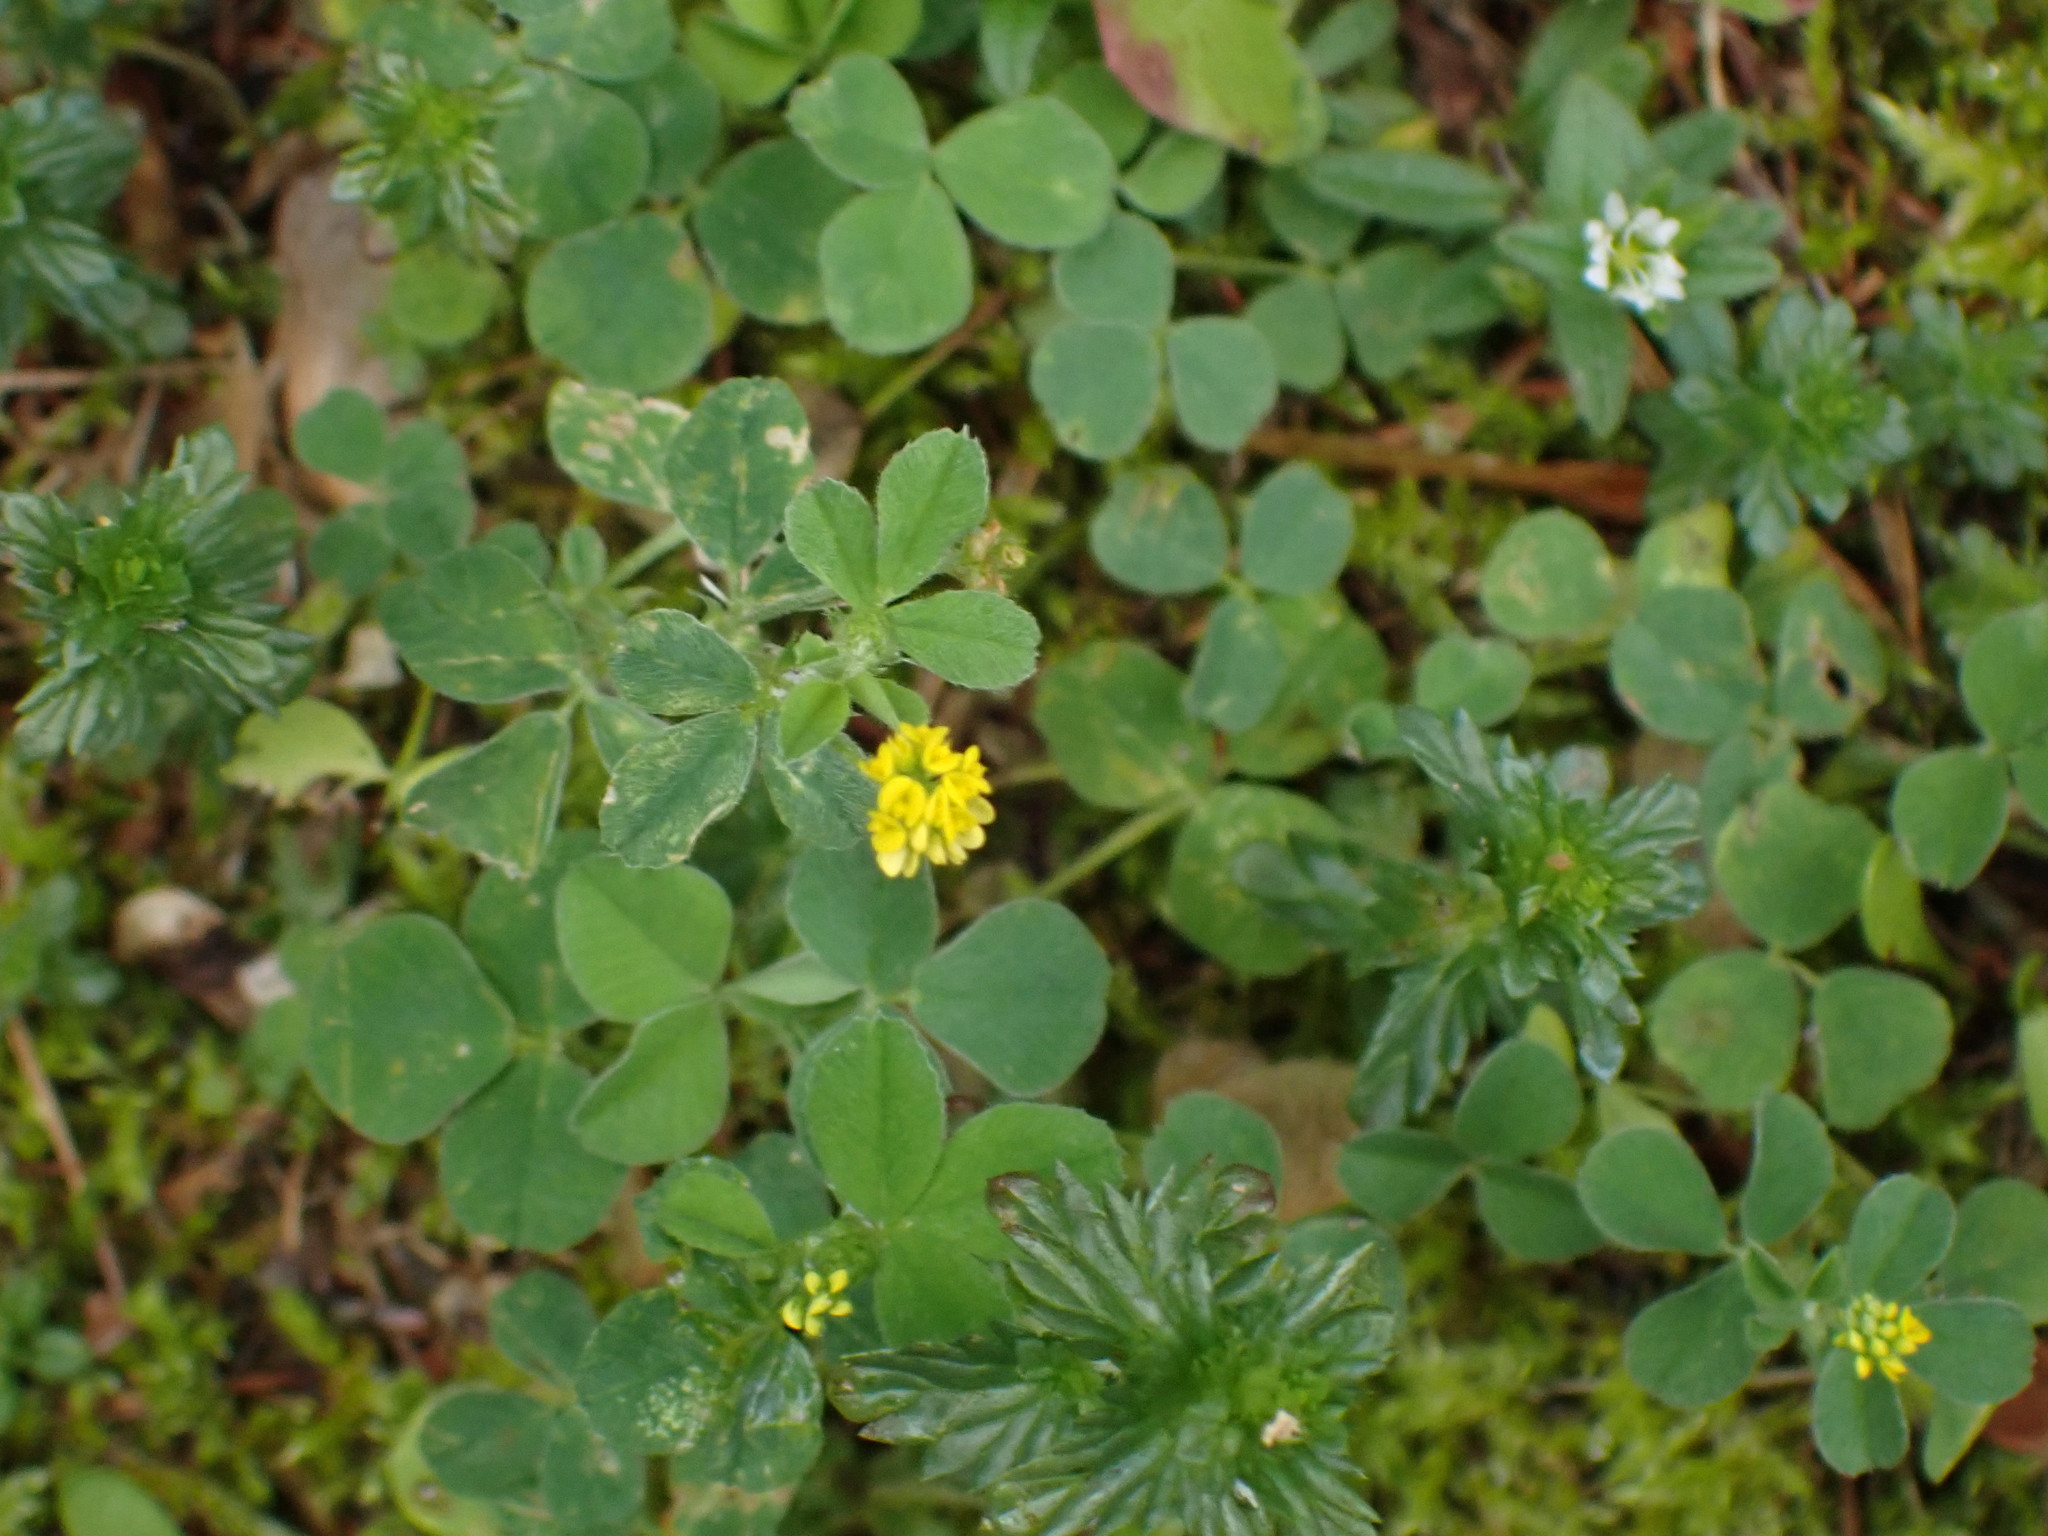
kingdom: Plantae
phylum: Tracheophyta
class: Magnoliopsida
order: Fabales
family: Fabaceae
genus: Medicago
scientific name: Medicago lupulina
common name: Black medick
